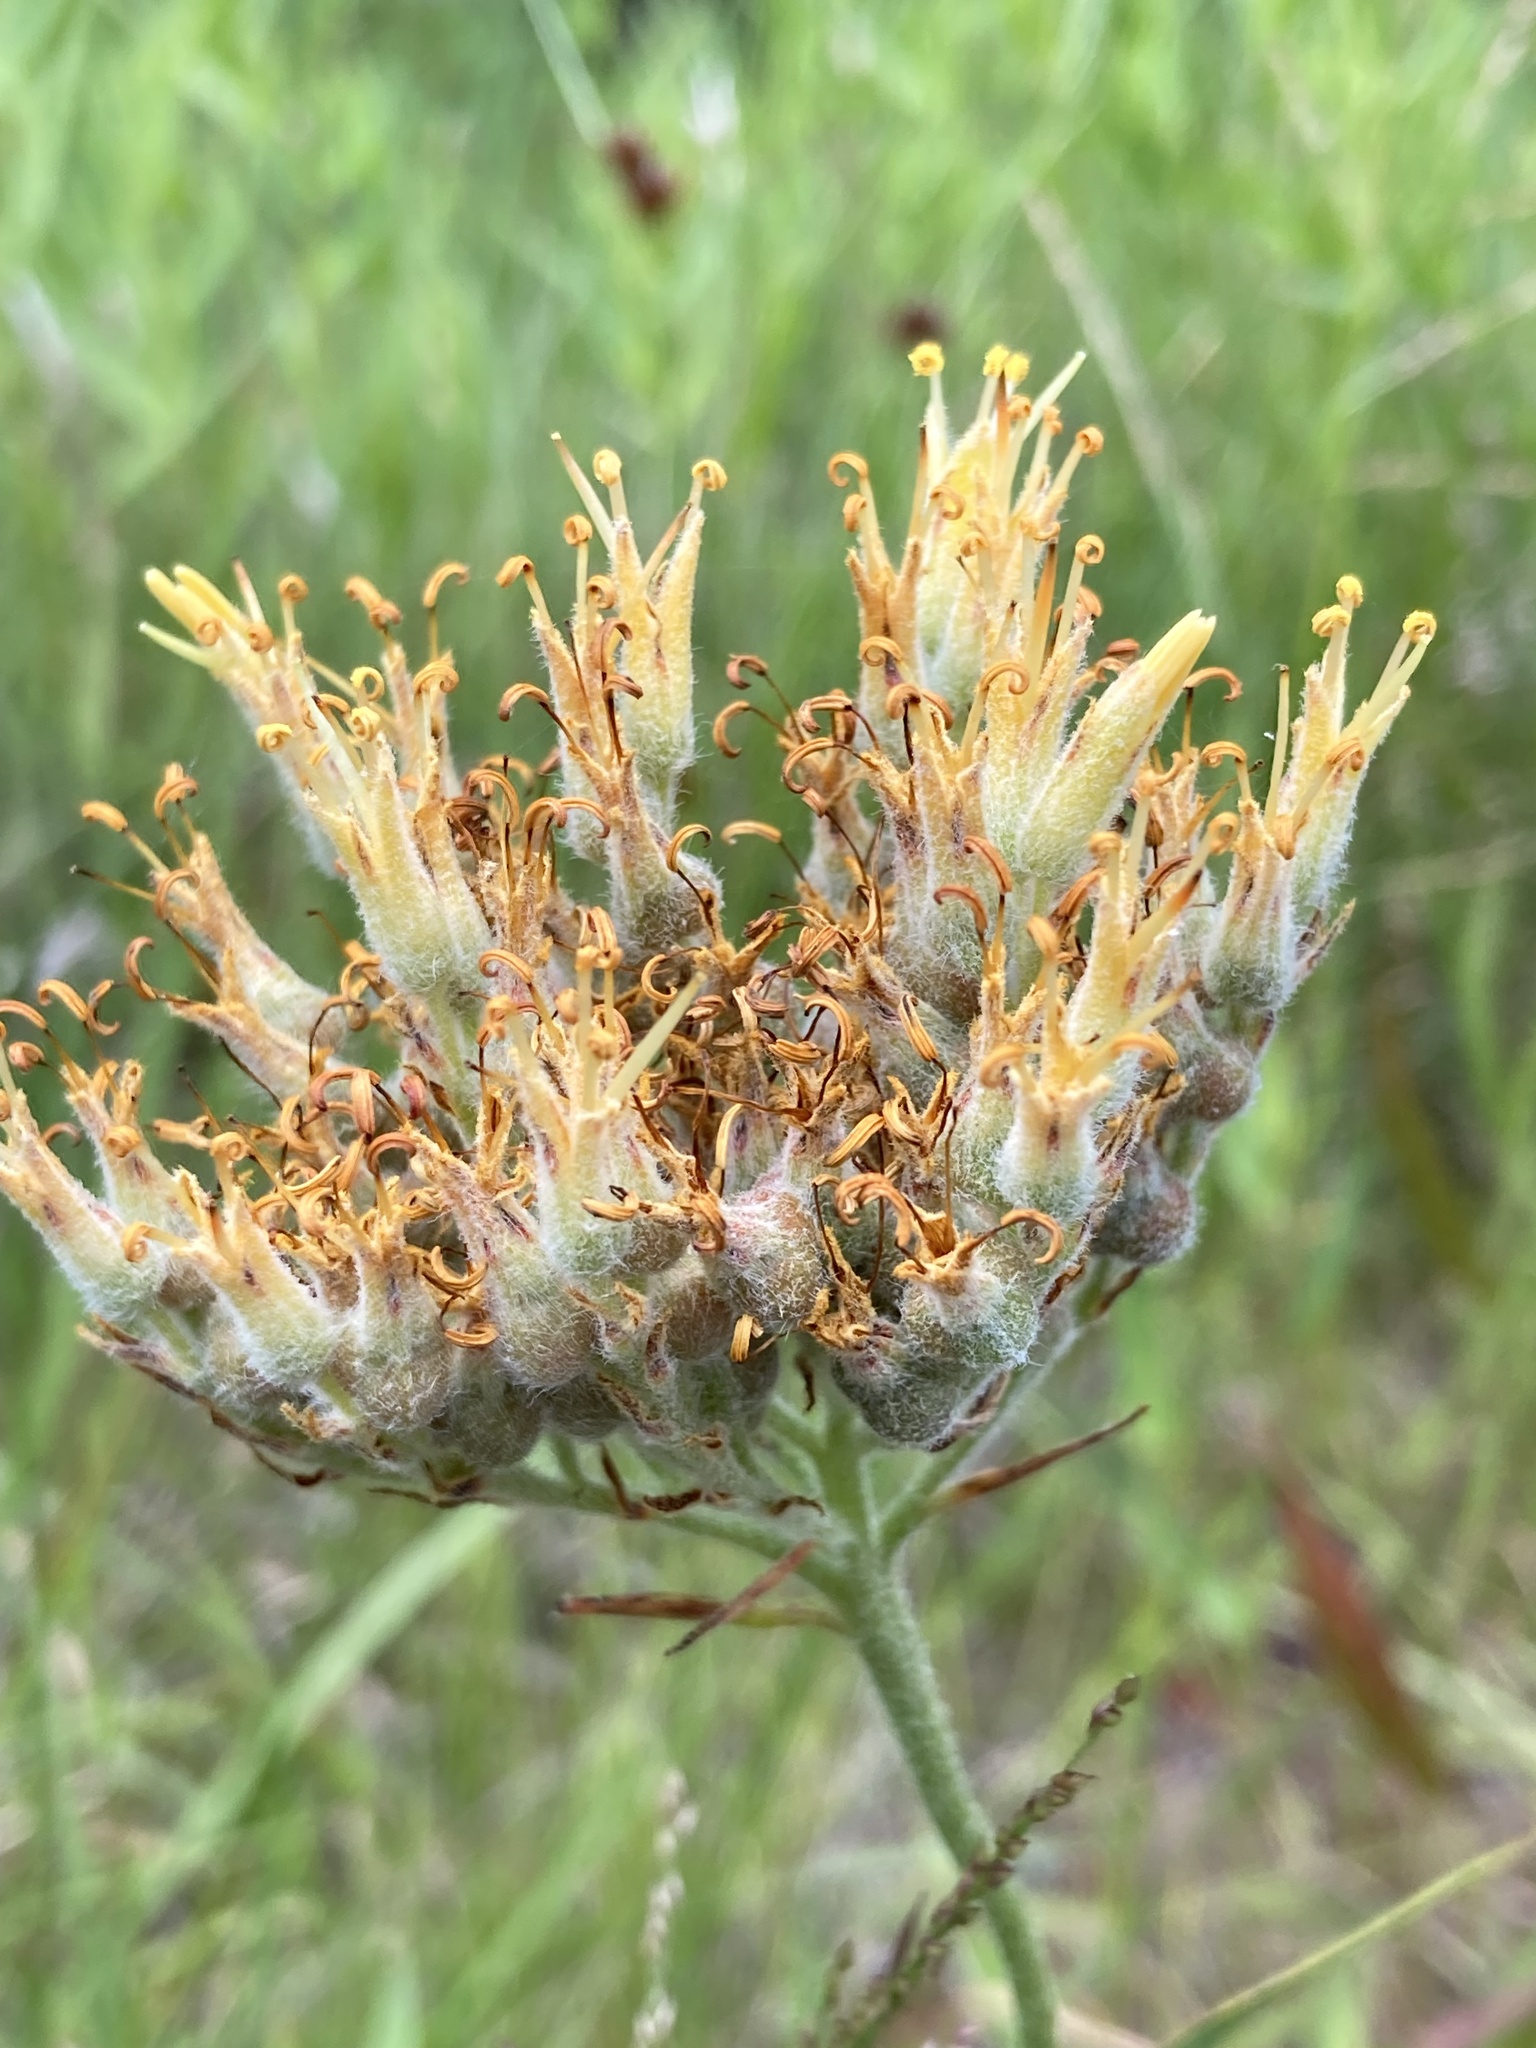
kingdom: Plantae
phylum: Tracheophyta
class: Liliopsida
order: Commelinales
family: Haemodoraceae
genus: Lachnanthes
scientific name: Lachnanthes caroliana
